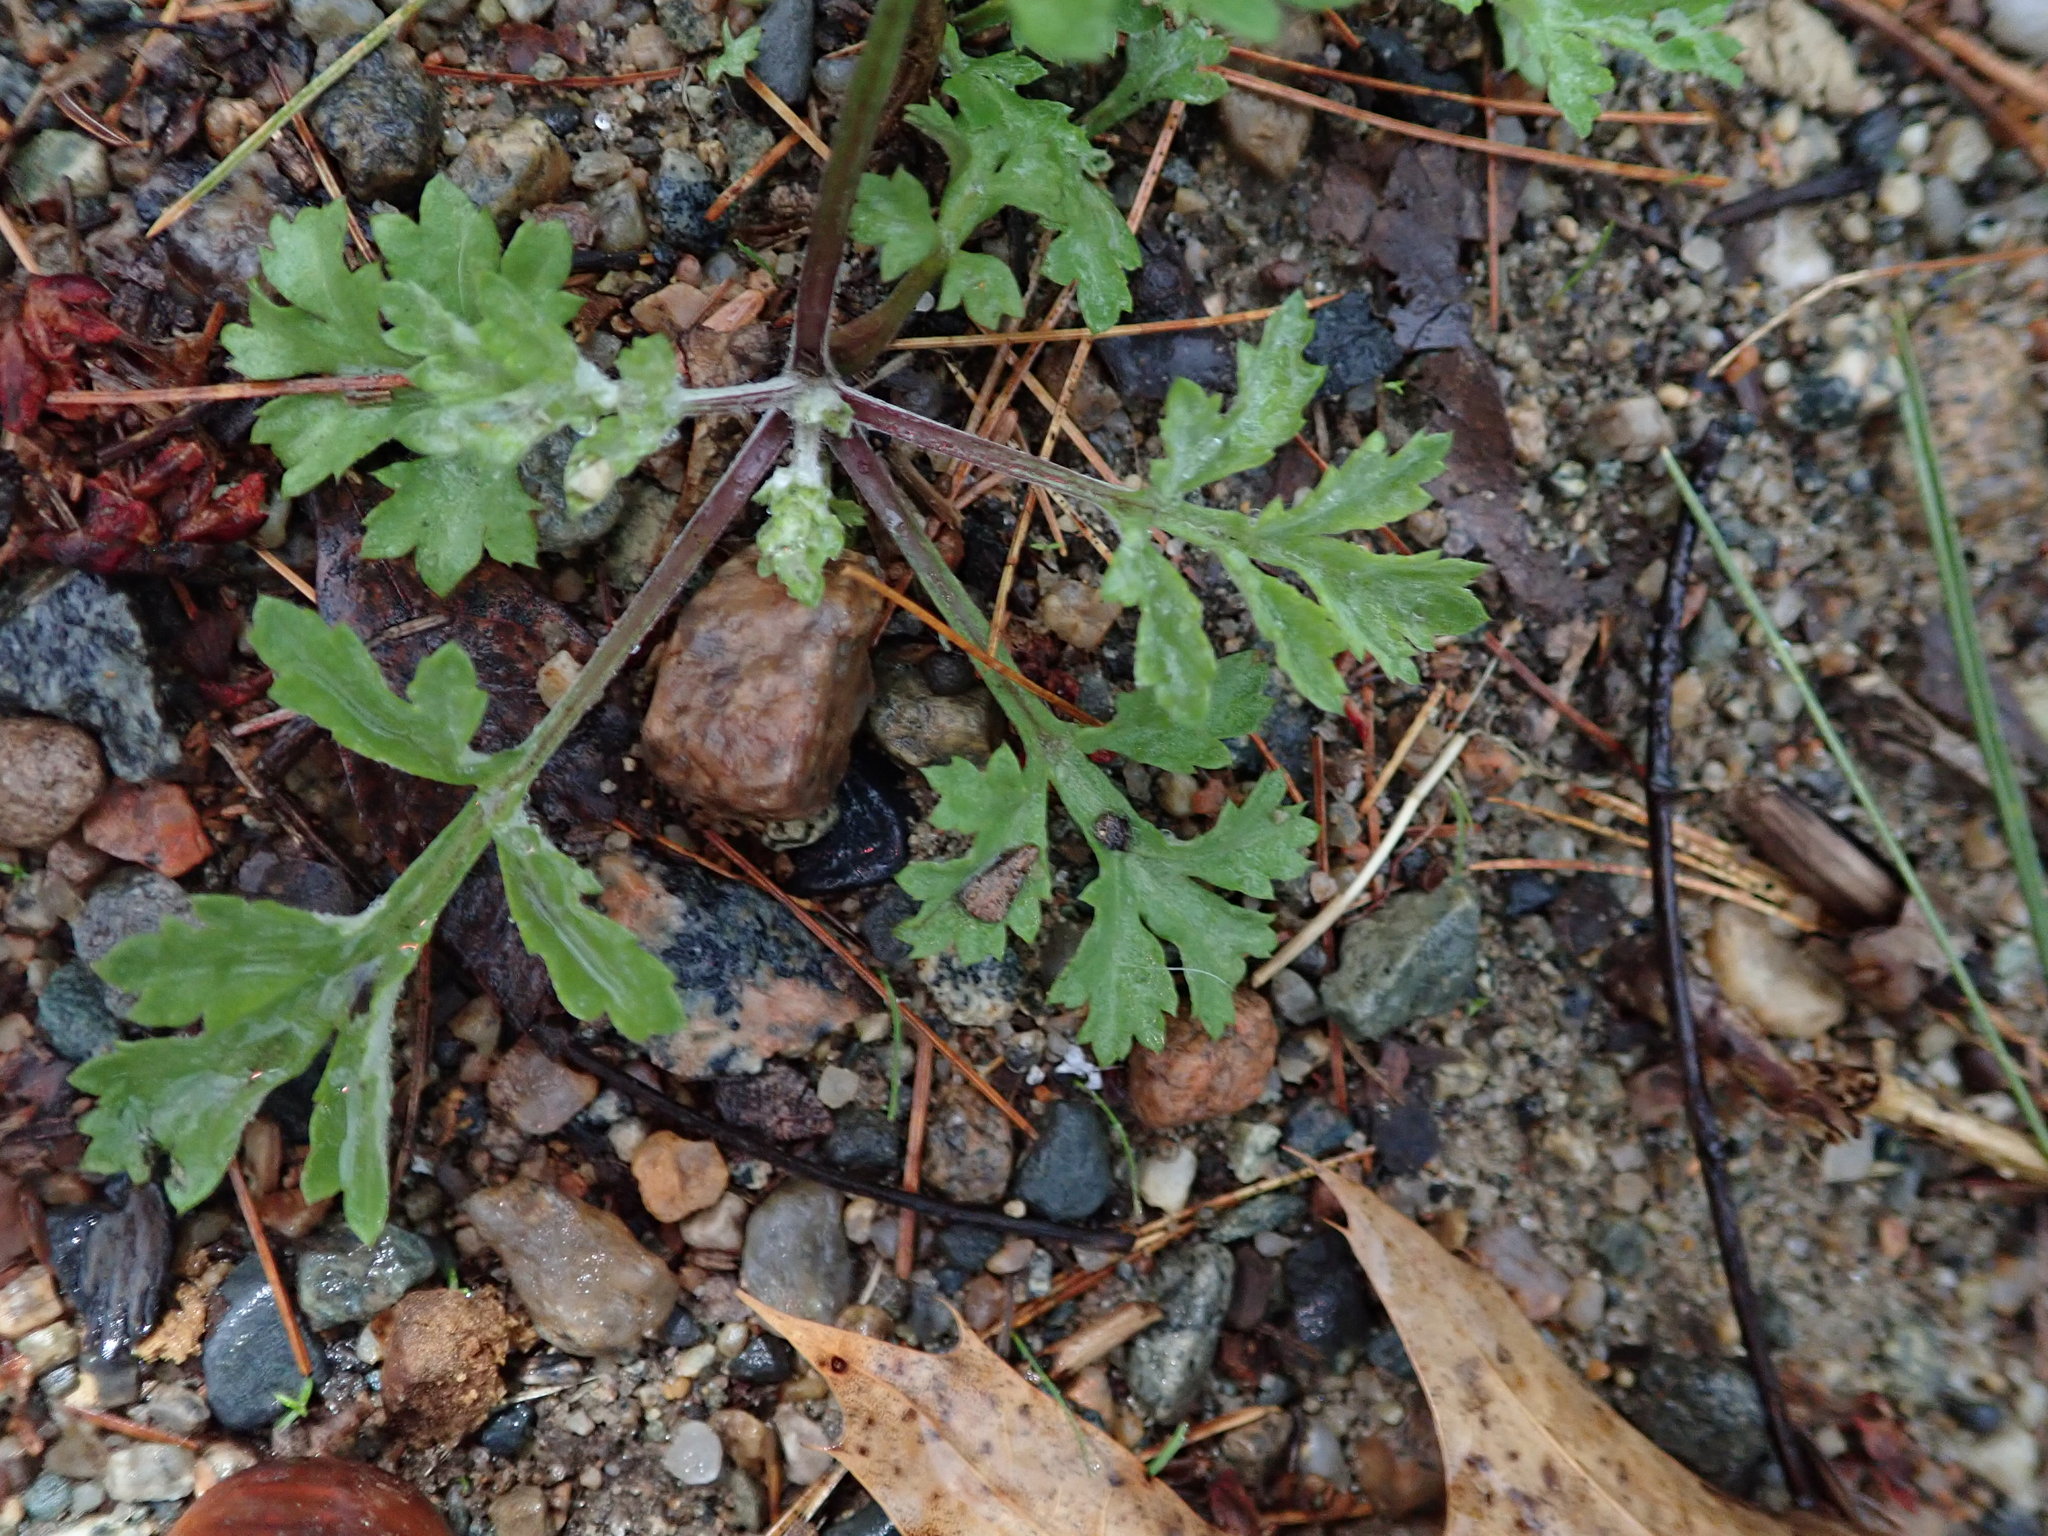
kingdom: Plantae
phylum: Tracheophyta
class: Magnoliopsida
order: Asterales
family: Asteraceae
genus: Artemisia
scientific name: Artemisia vulgaris
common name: Mugwort
